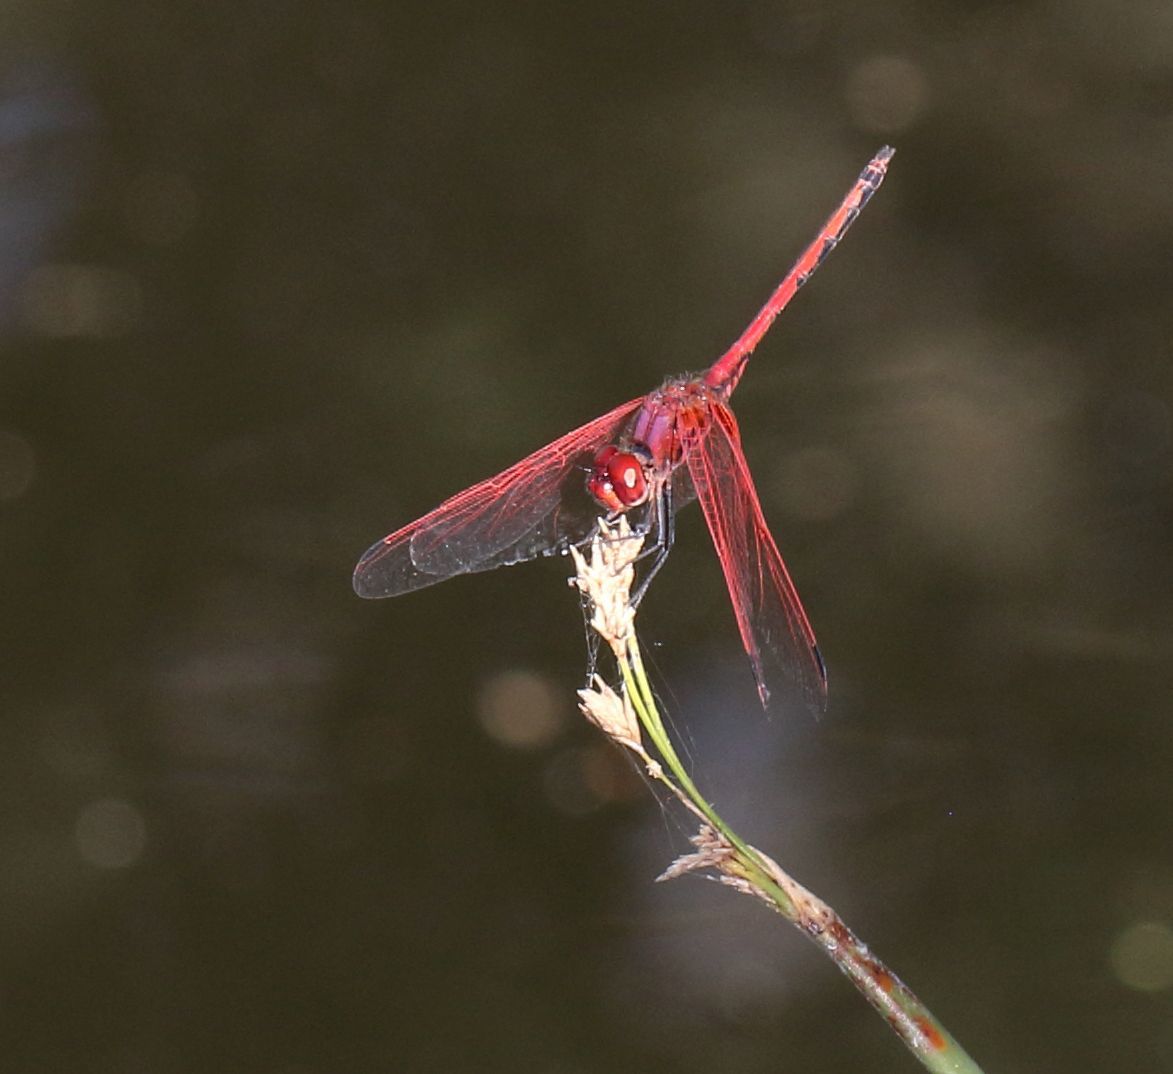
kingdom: Animalia
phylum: Arthropoda
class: Insecta
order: Odonata
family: Libellulidae
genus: Trithemis
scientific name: Trithemis arteriosa
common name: Red-veined dropwing
